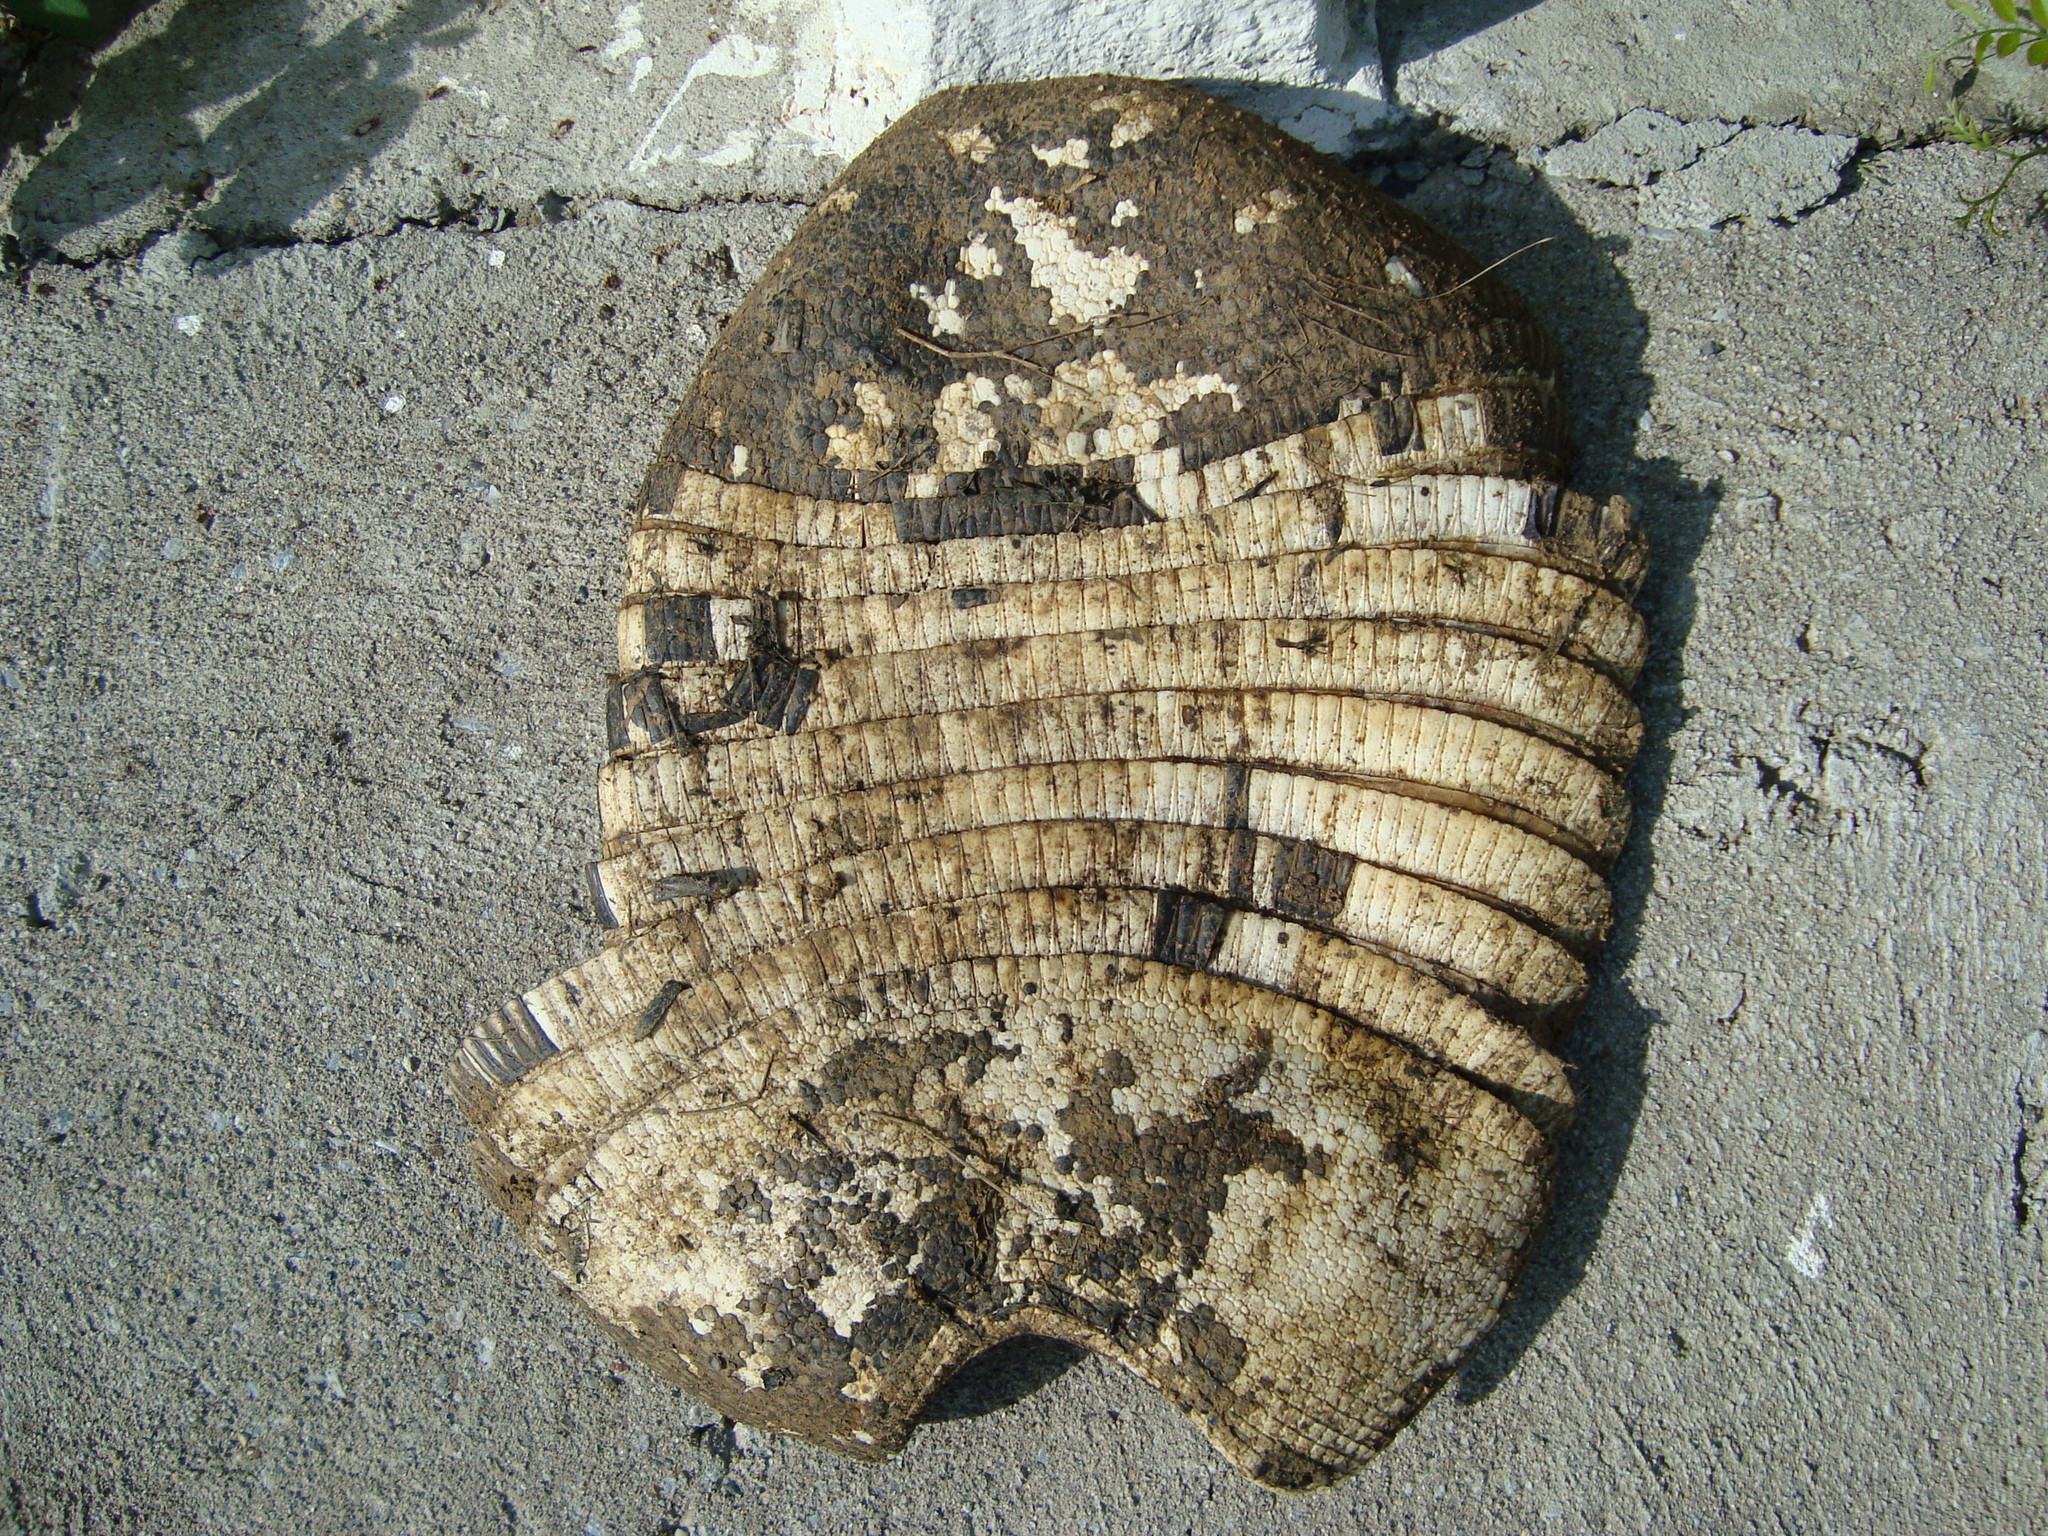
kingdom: Animalia
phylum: Chordata
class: Mammalia
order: Cingulata
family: Dasypodidae
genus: Dasypus
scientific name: Dasypus novemcinctus
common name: Nine-banded armadillo
